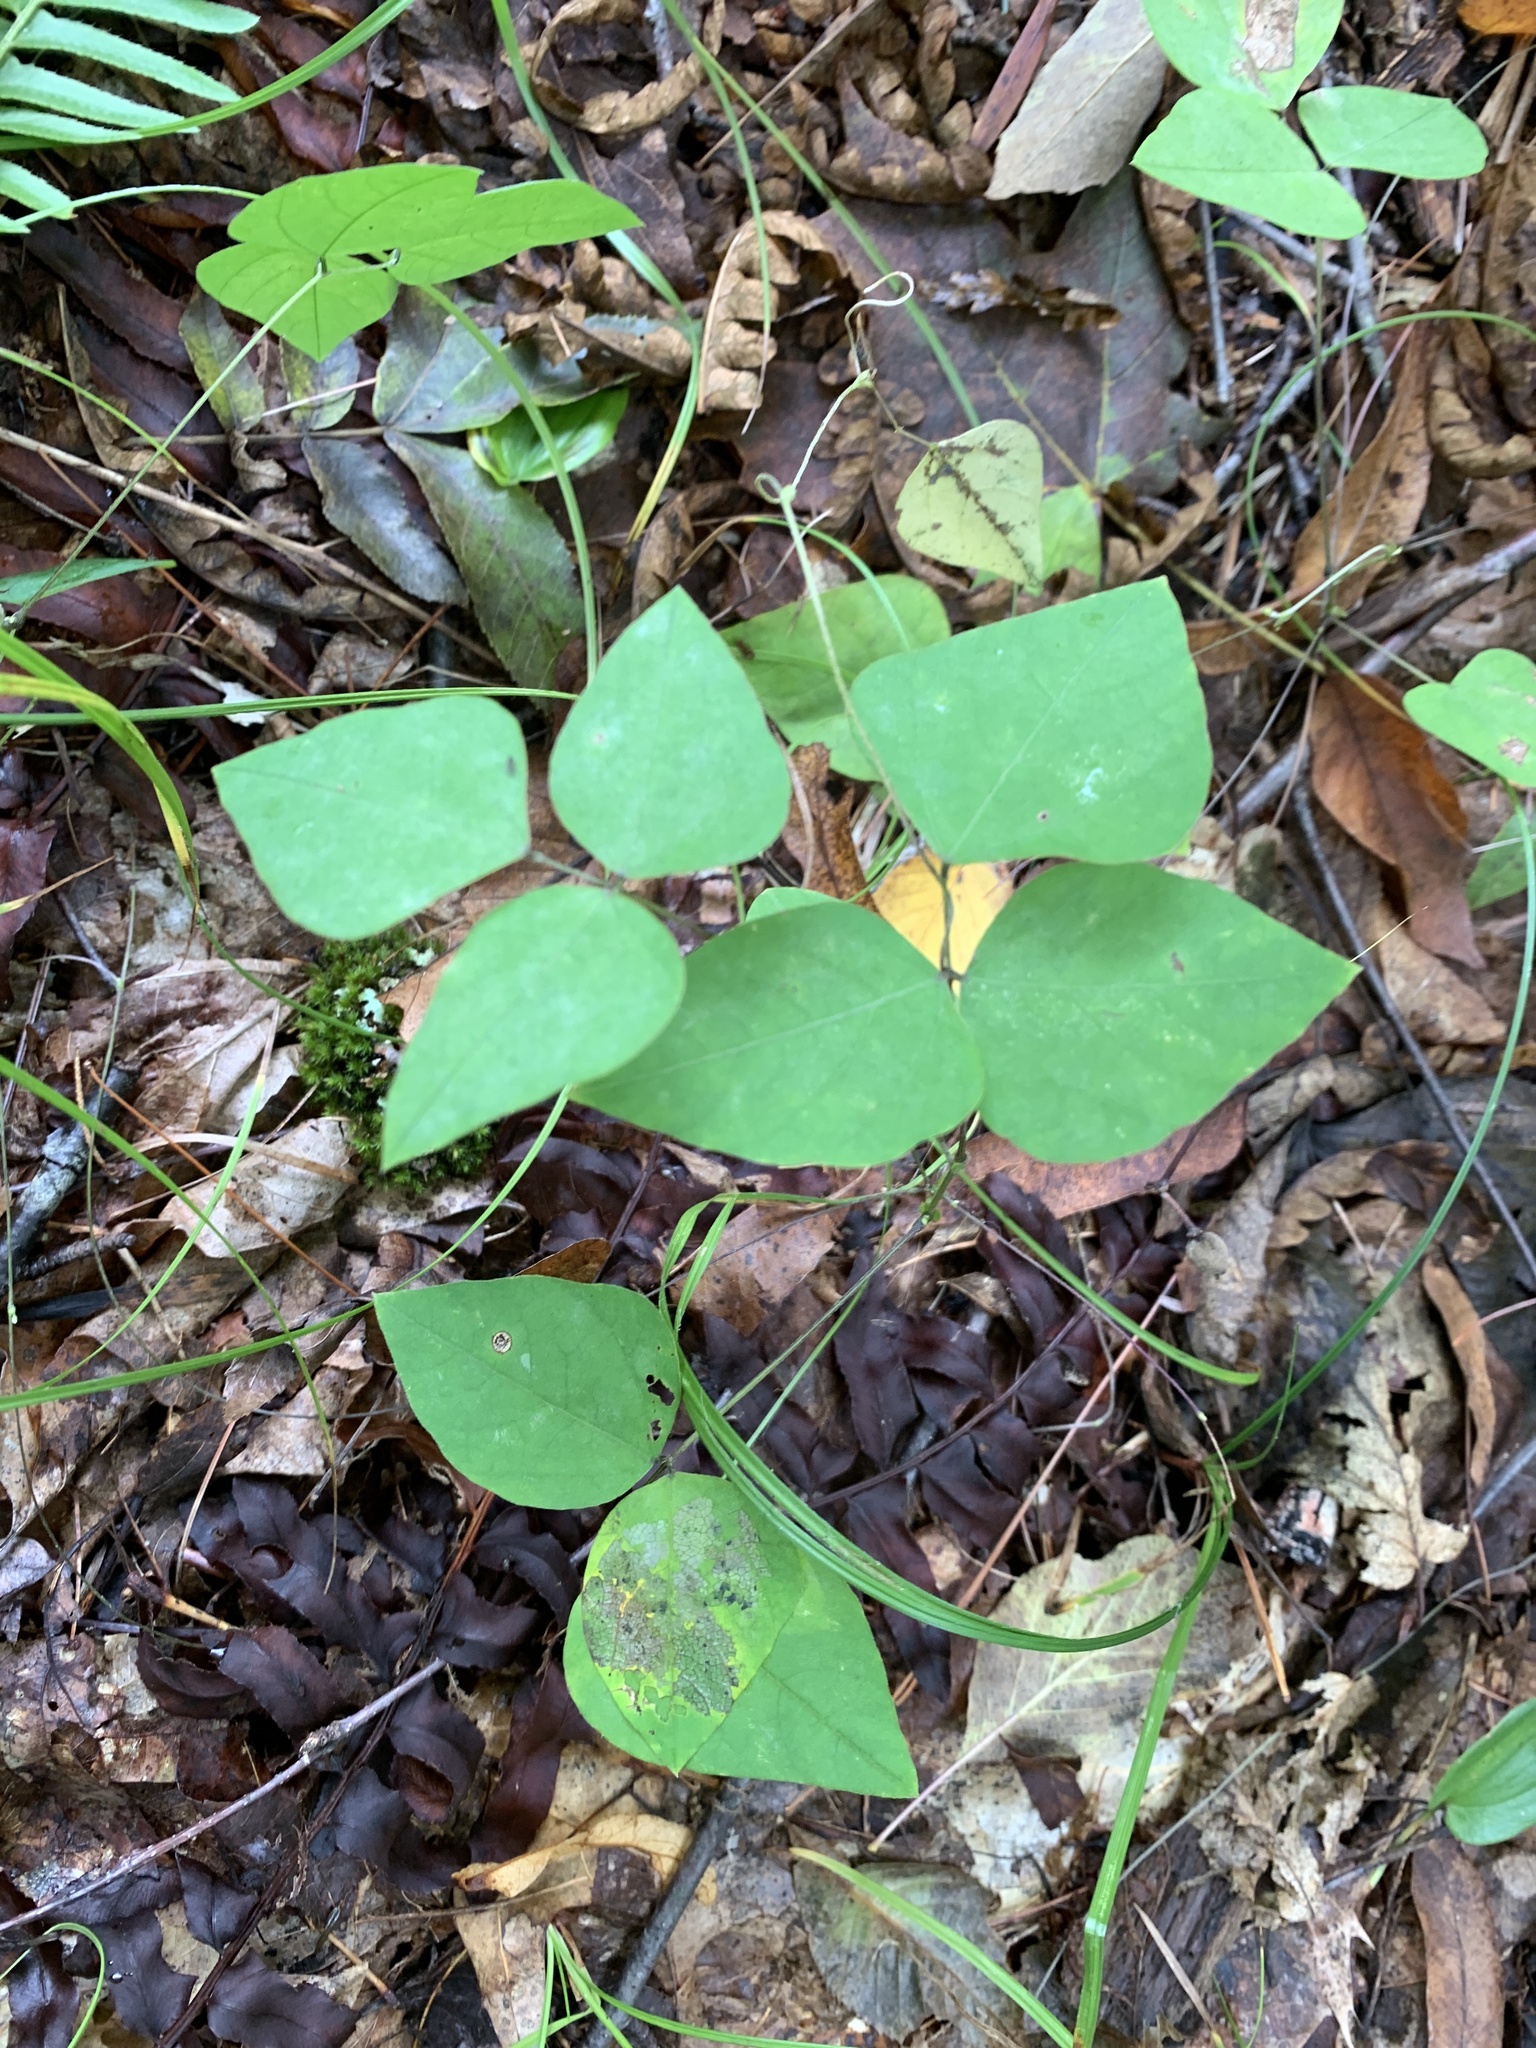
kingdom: Plantae
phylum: Tracheophyta
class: Magnoliopsida
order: Fabales
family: Fabaceae
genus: Amphicarpaea
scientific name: Amphicarpaea bracteata
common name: American hog peanut
